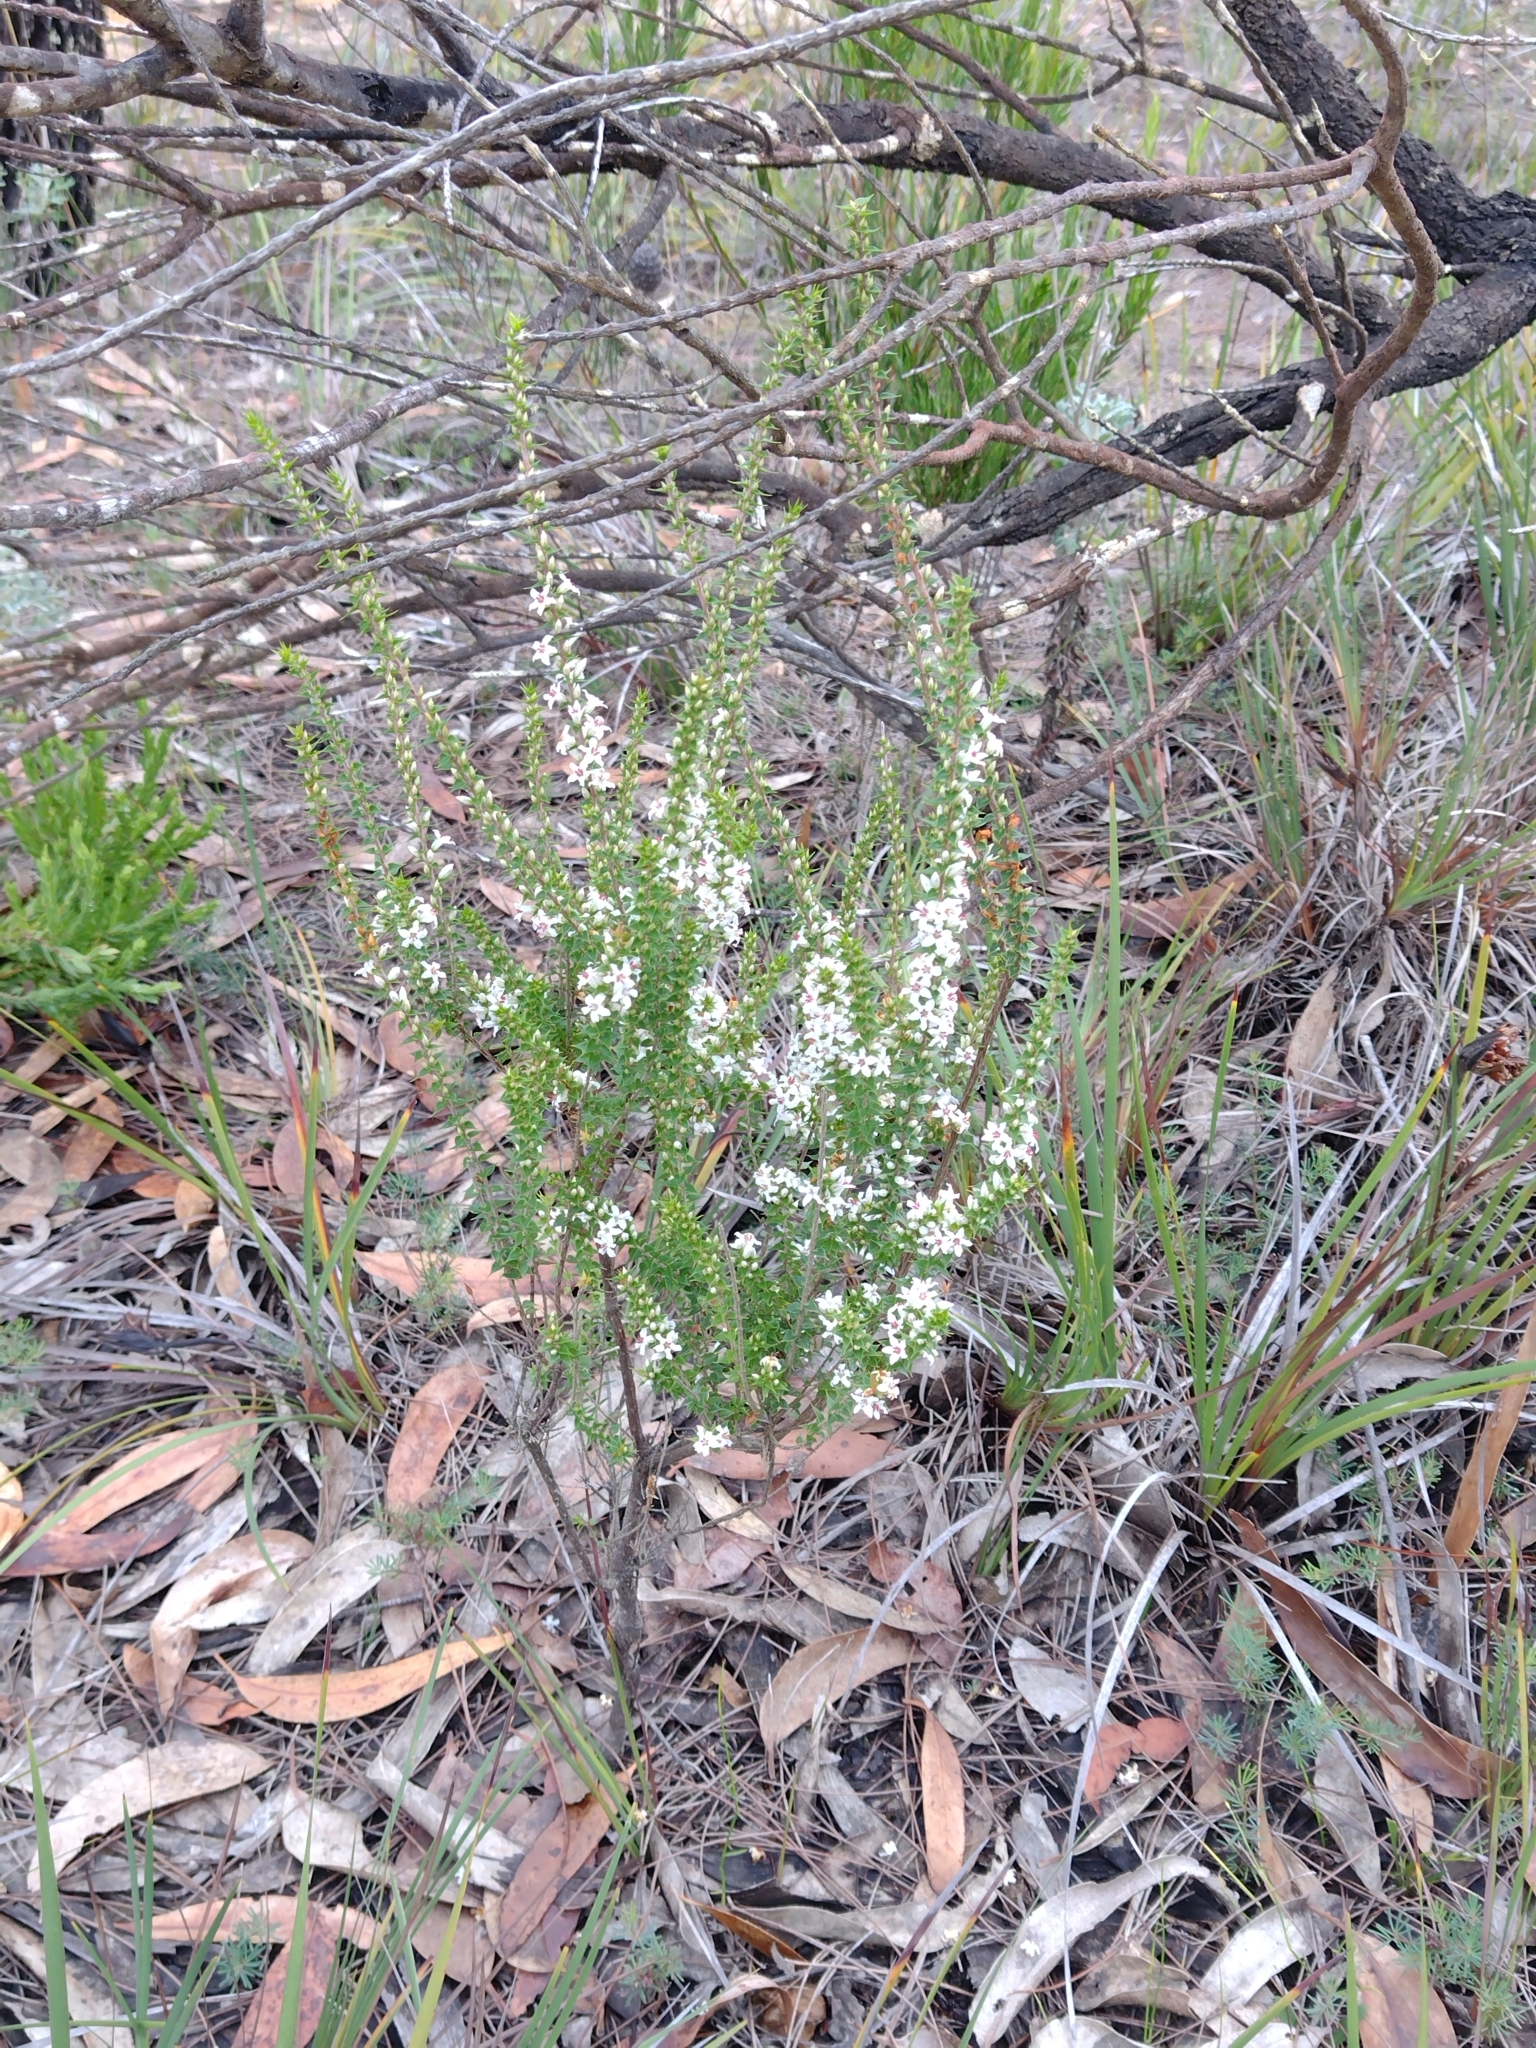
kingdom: Plantae
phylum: Tracheophyta
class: Magnoliopsida
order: Ericales
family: Ericaceae
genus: Epacris
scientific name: Epacris pulchella
